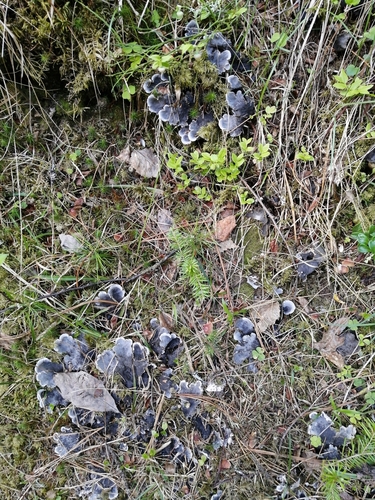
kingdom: Fungi
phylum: Ascomycota
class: Lecanoromycetes
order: Peltigerales
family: Peltigeraceae
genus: Peltigera
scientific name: Peltigera
